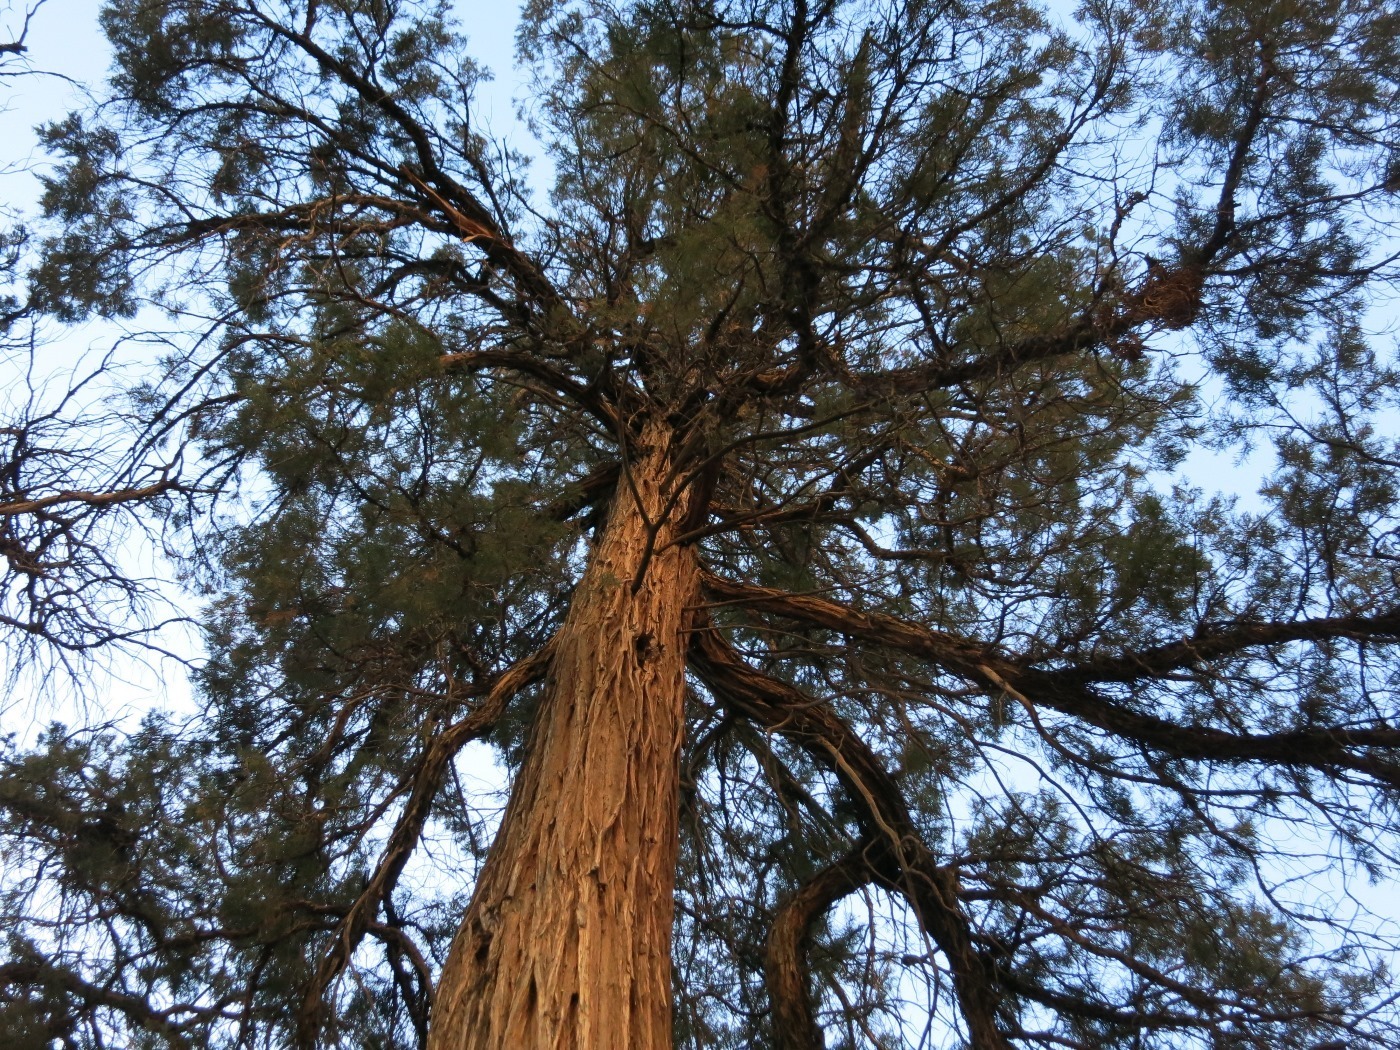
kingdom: Plantae
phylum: Tracheophyta
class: Pinopsida
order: Pinales
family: Cupressaceae
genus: Juniperus
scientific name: Juniperus scopulorum
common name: Rocky mountain juniper
